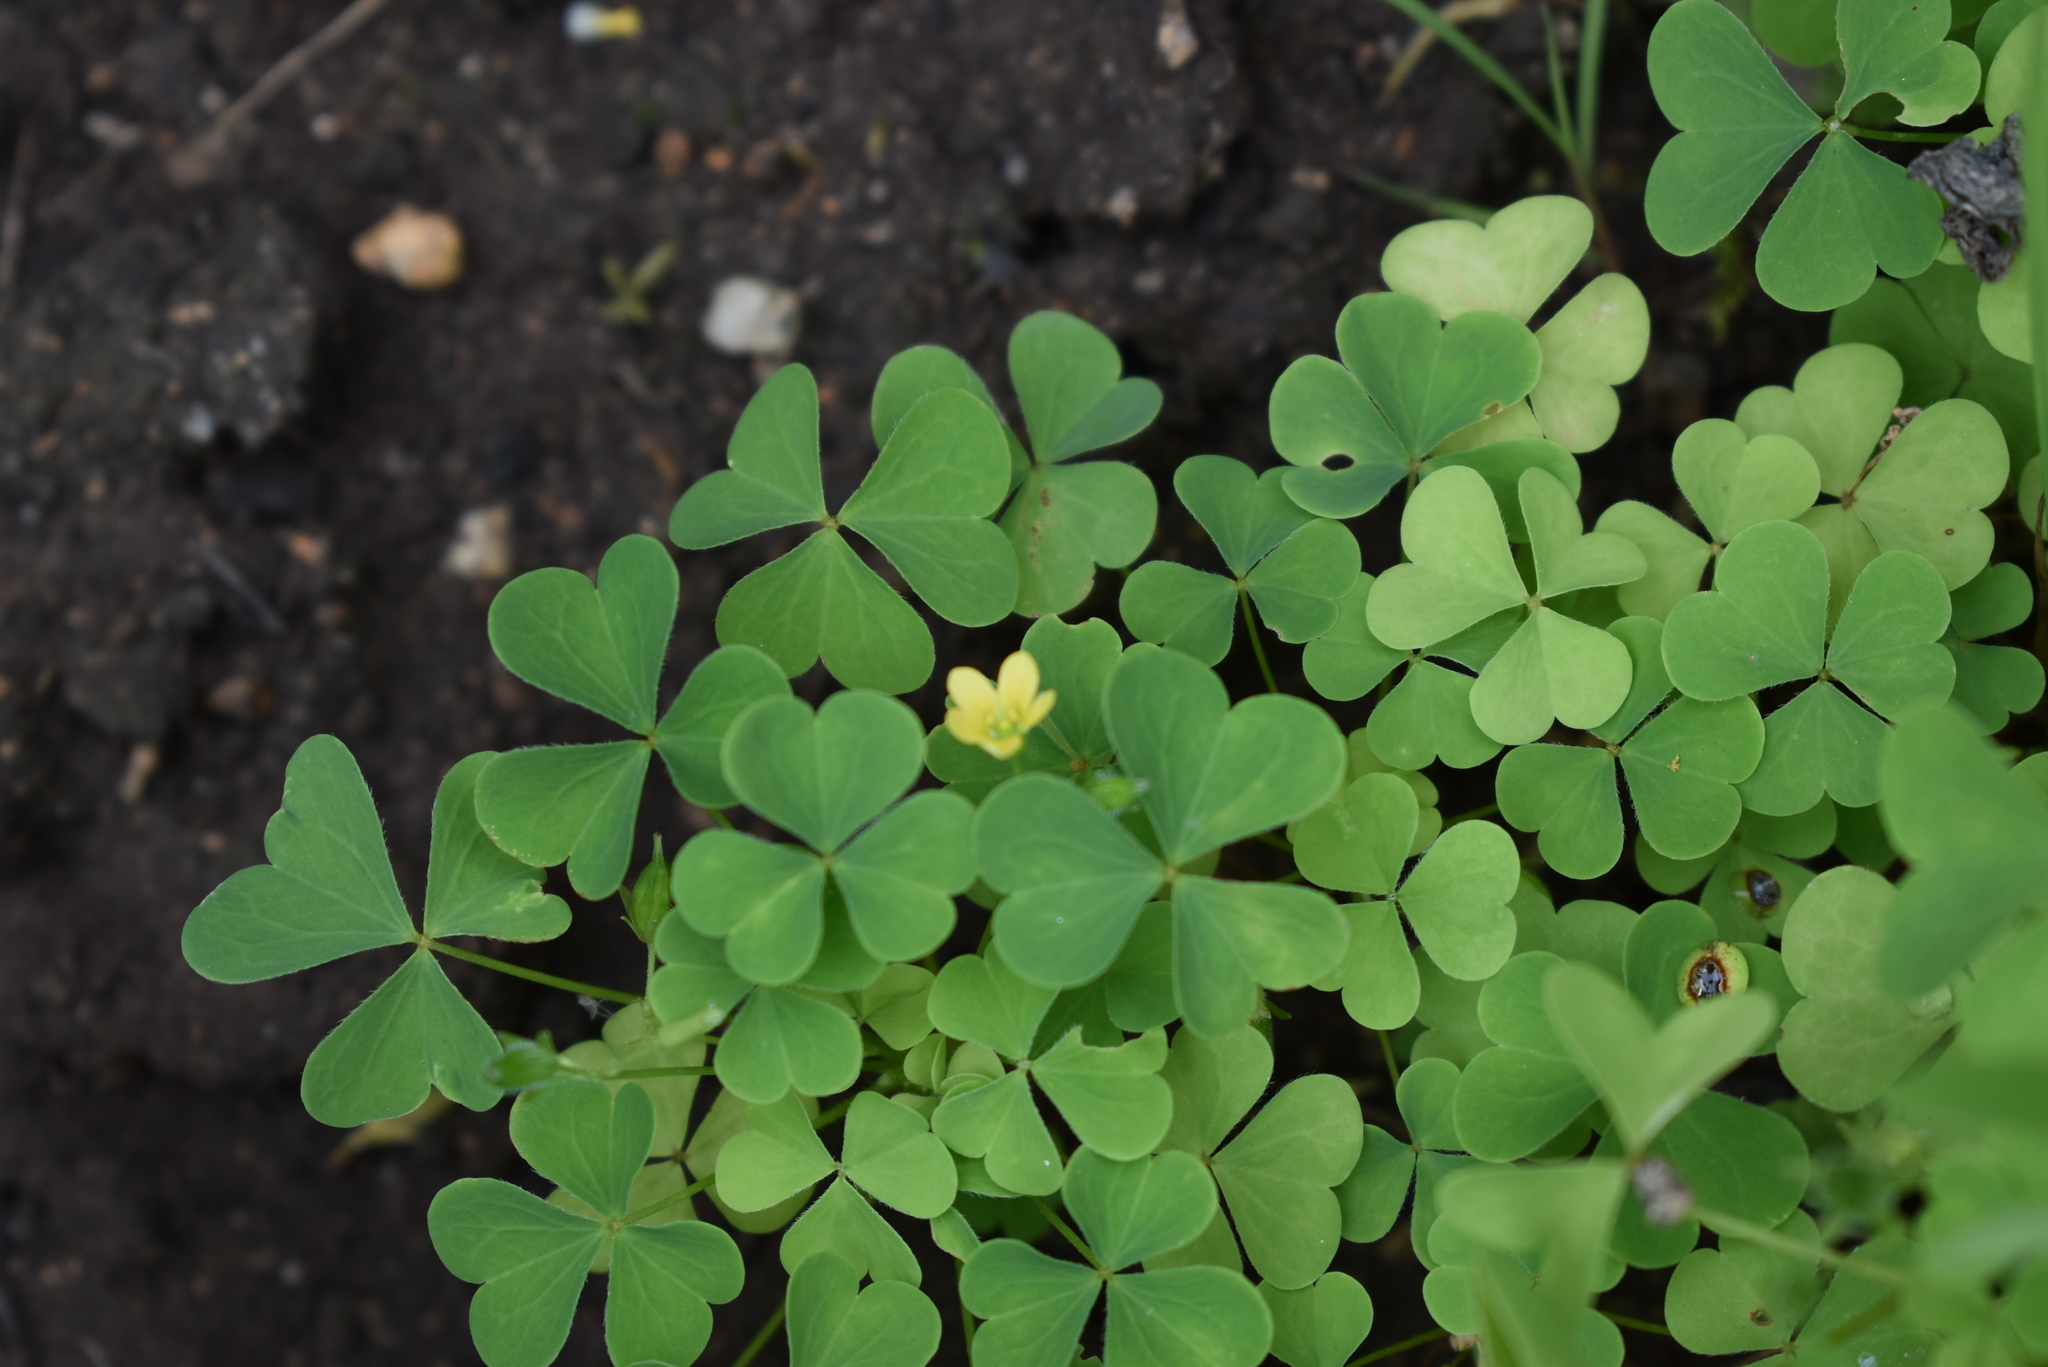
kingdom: Plantae
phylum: Tracheophyta
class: Magnoliopsida
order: Oxalidales
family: Oxalidaceae
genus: Oxalis
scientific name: Oxalis stricta
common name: Upright yellow-sorrel
